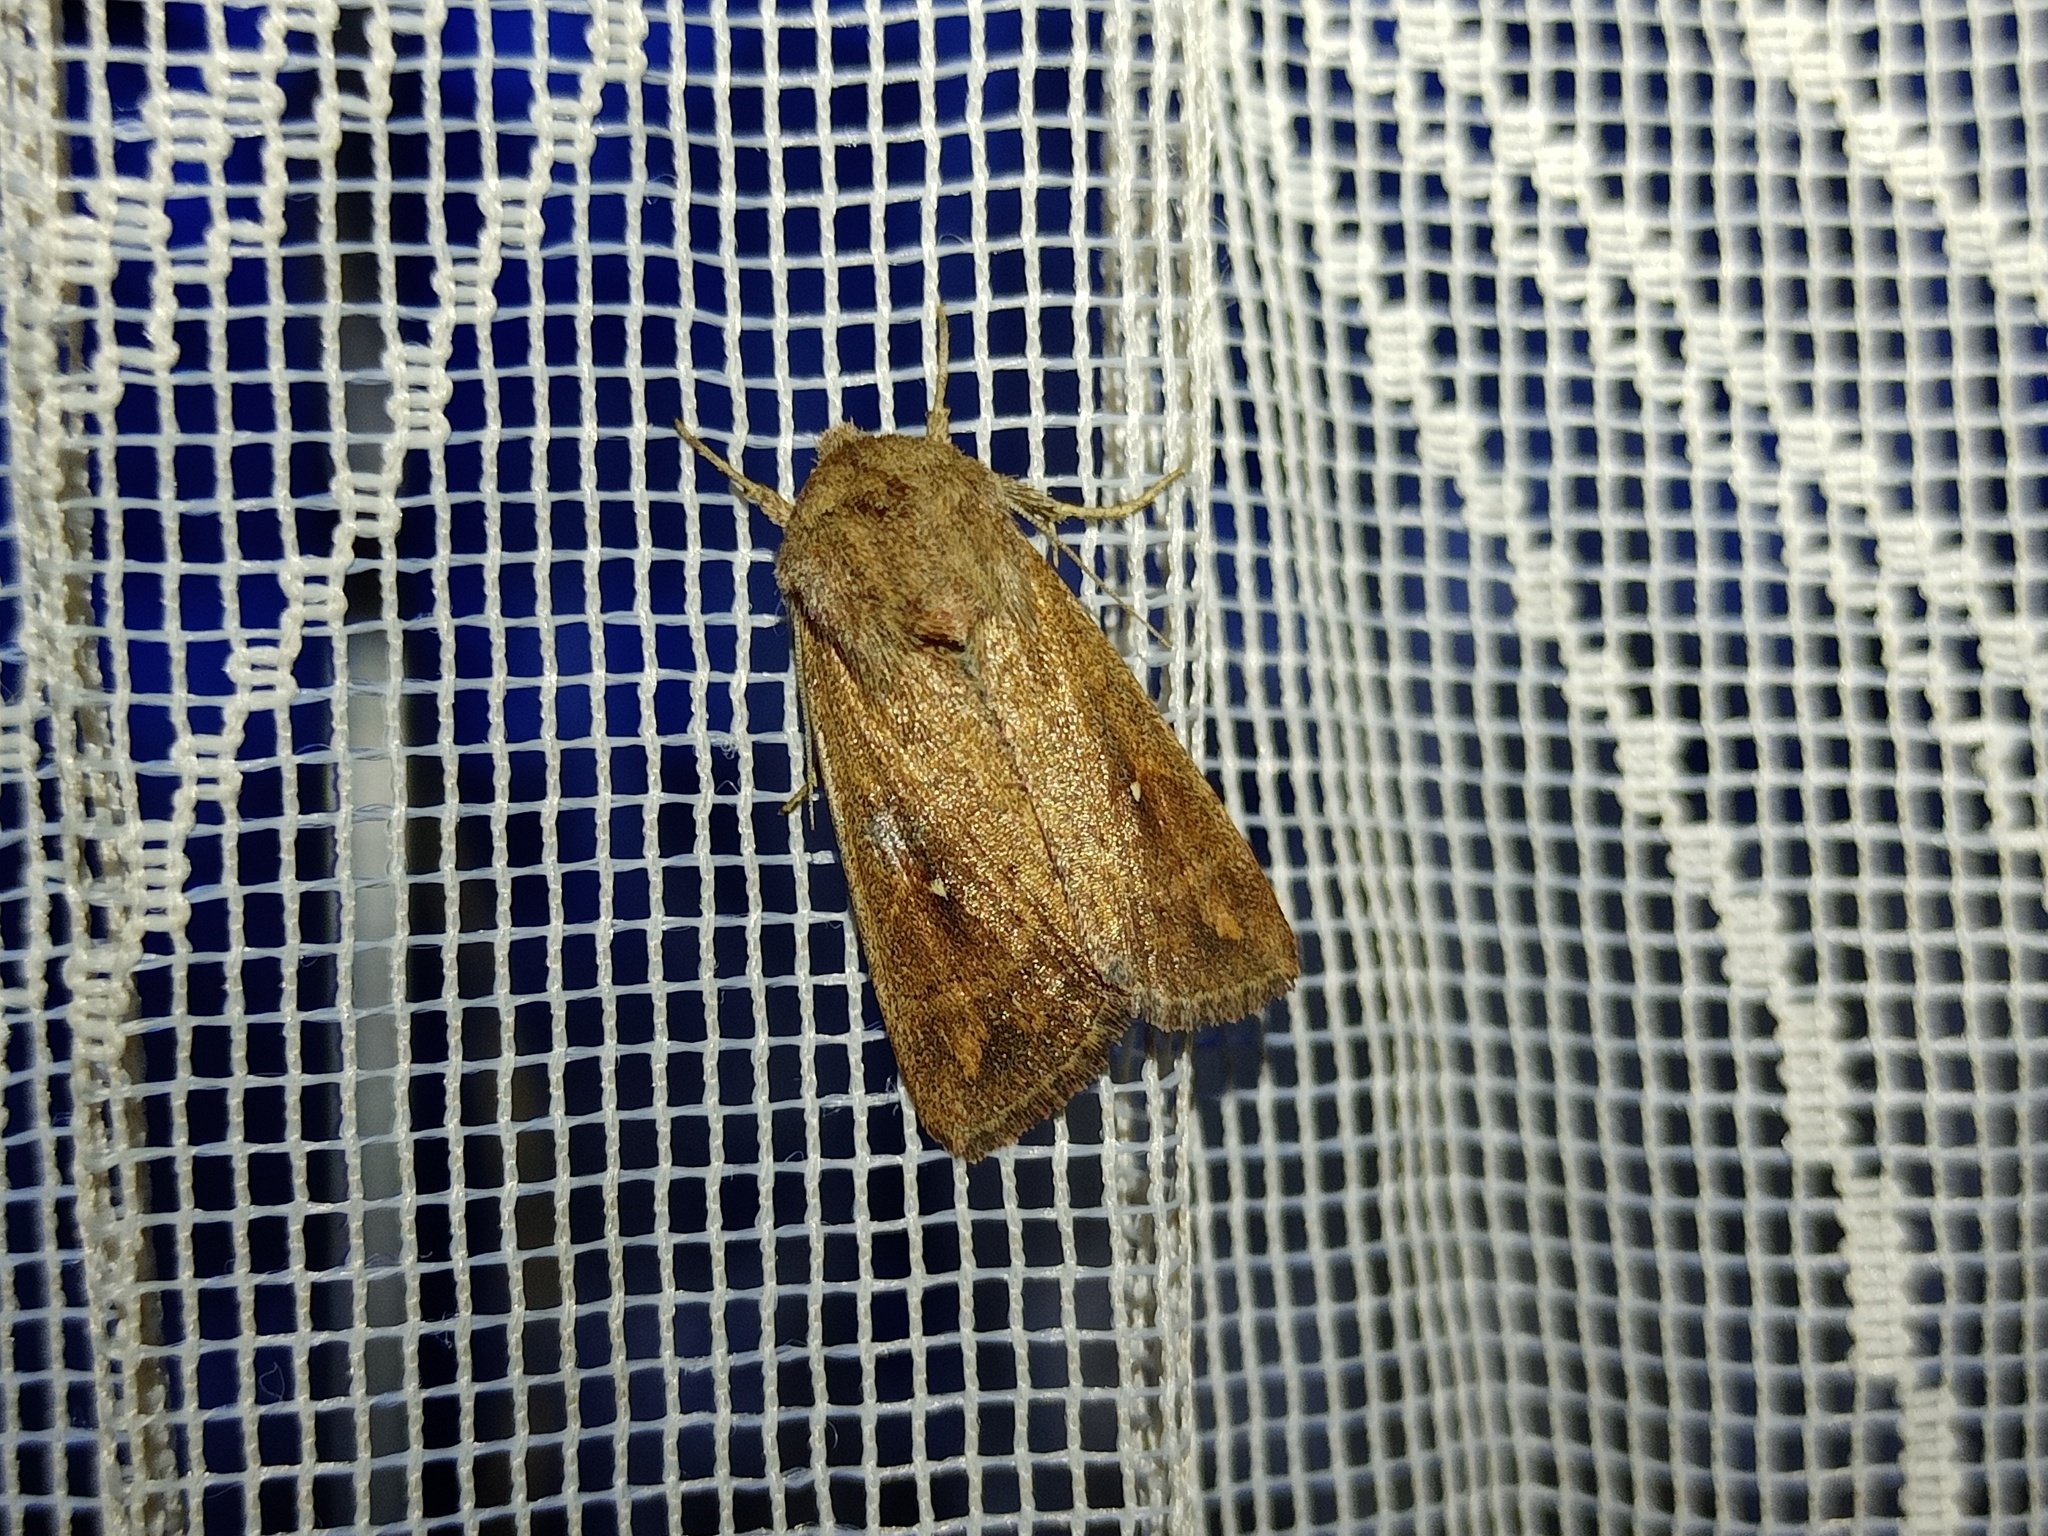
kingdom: Animalia
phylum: Arthropoda
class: Insecta
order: Lepidoptera
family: Noctuidae
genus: Mythimna
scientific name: Mythimna albipuncta
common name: White-point
